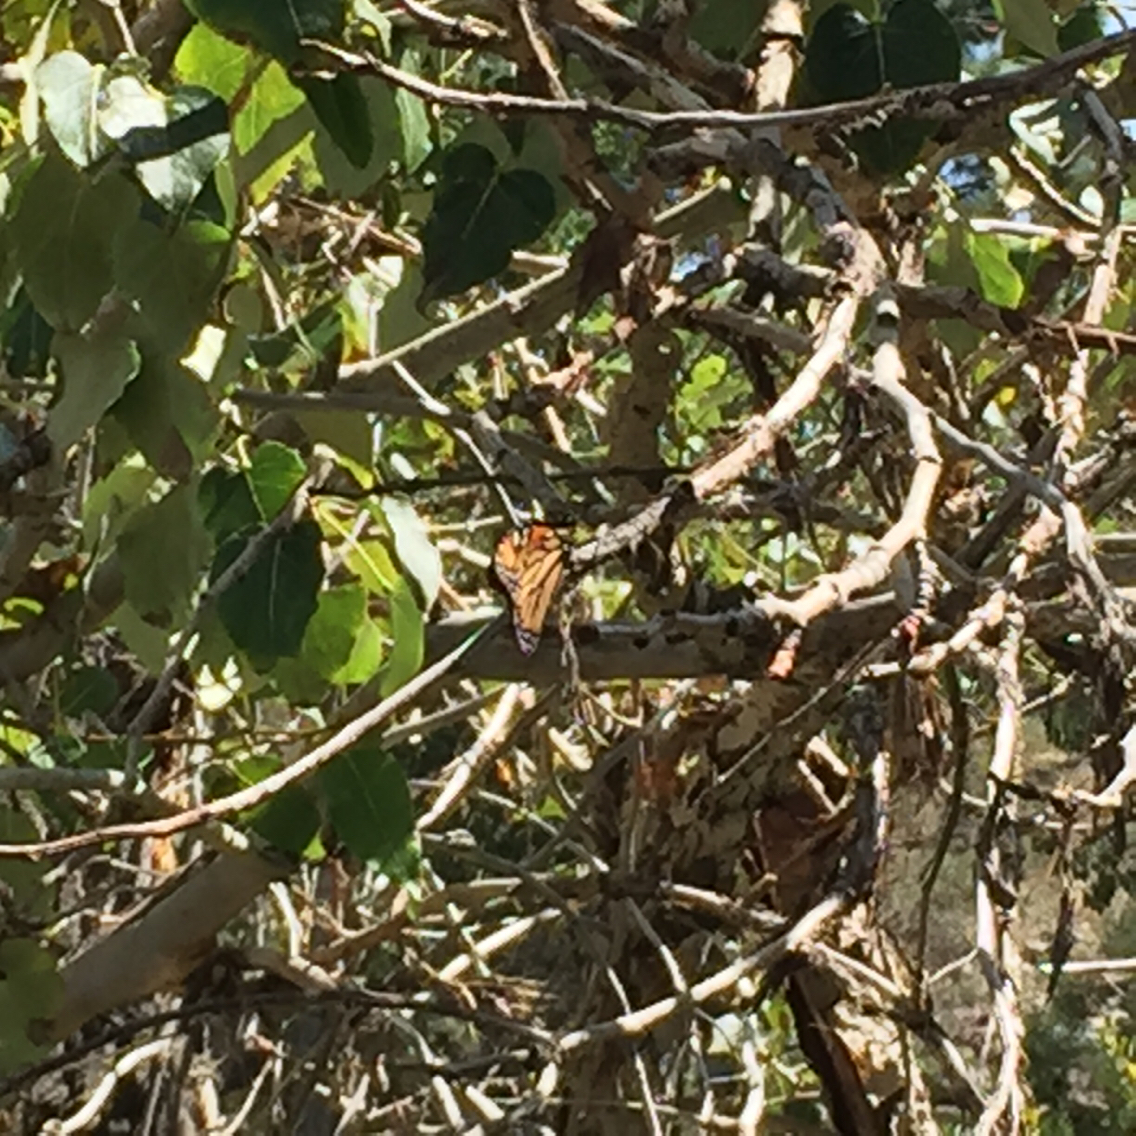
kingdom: Animalia
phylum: Arthropoda
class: Insecta
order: Lepidoptera
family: Nymphalidae
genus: Danaus
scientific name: Danaus plexippus
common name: Monarch
